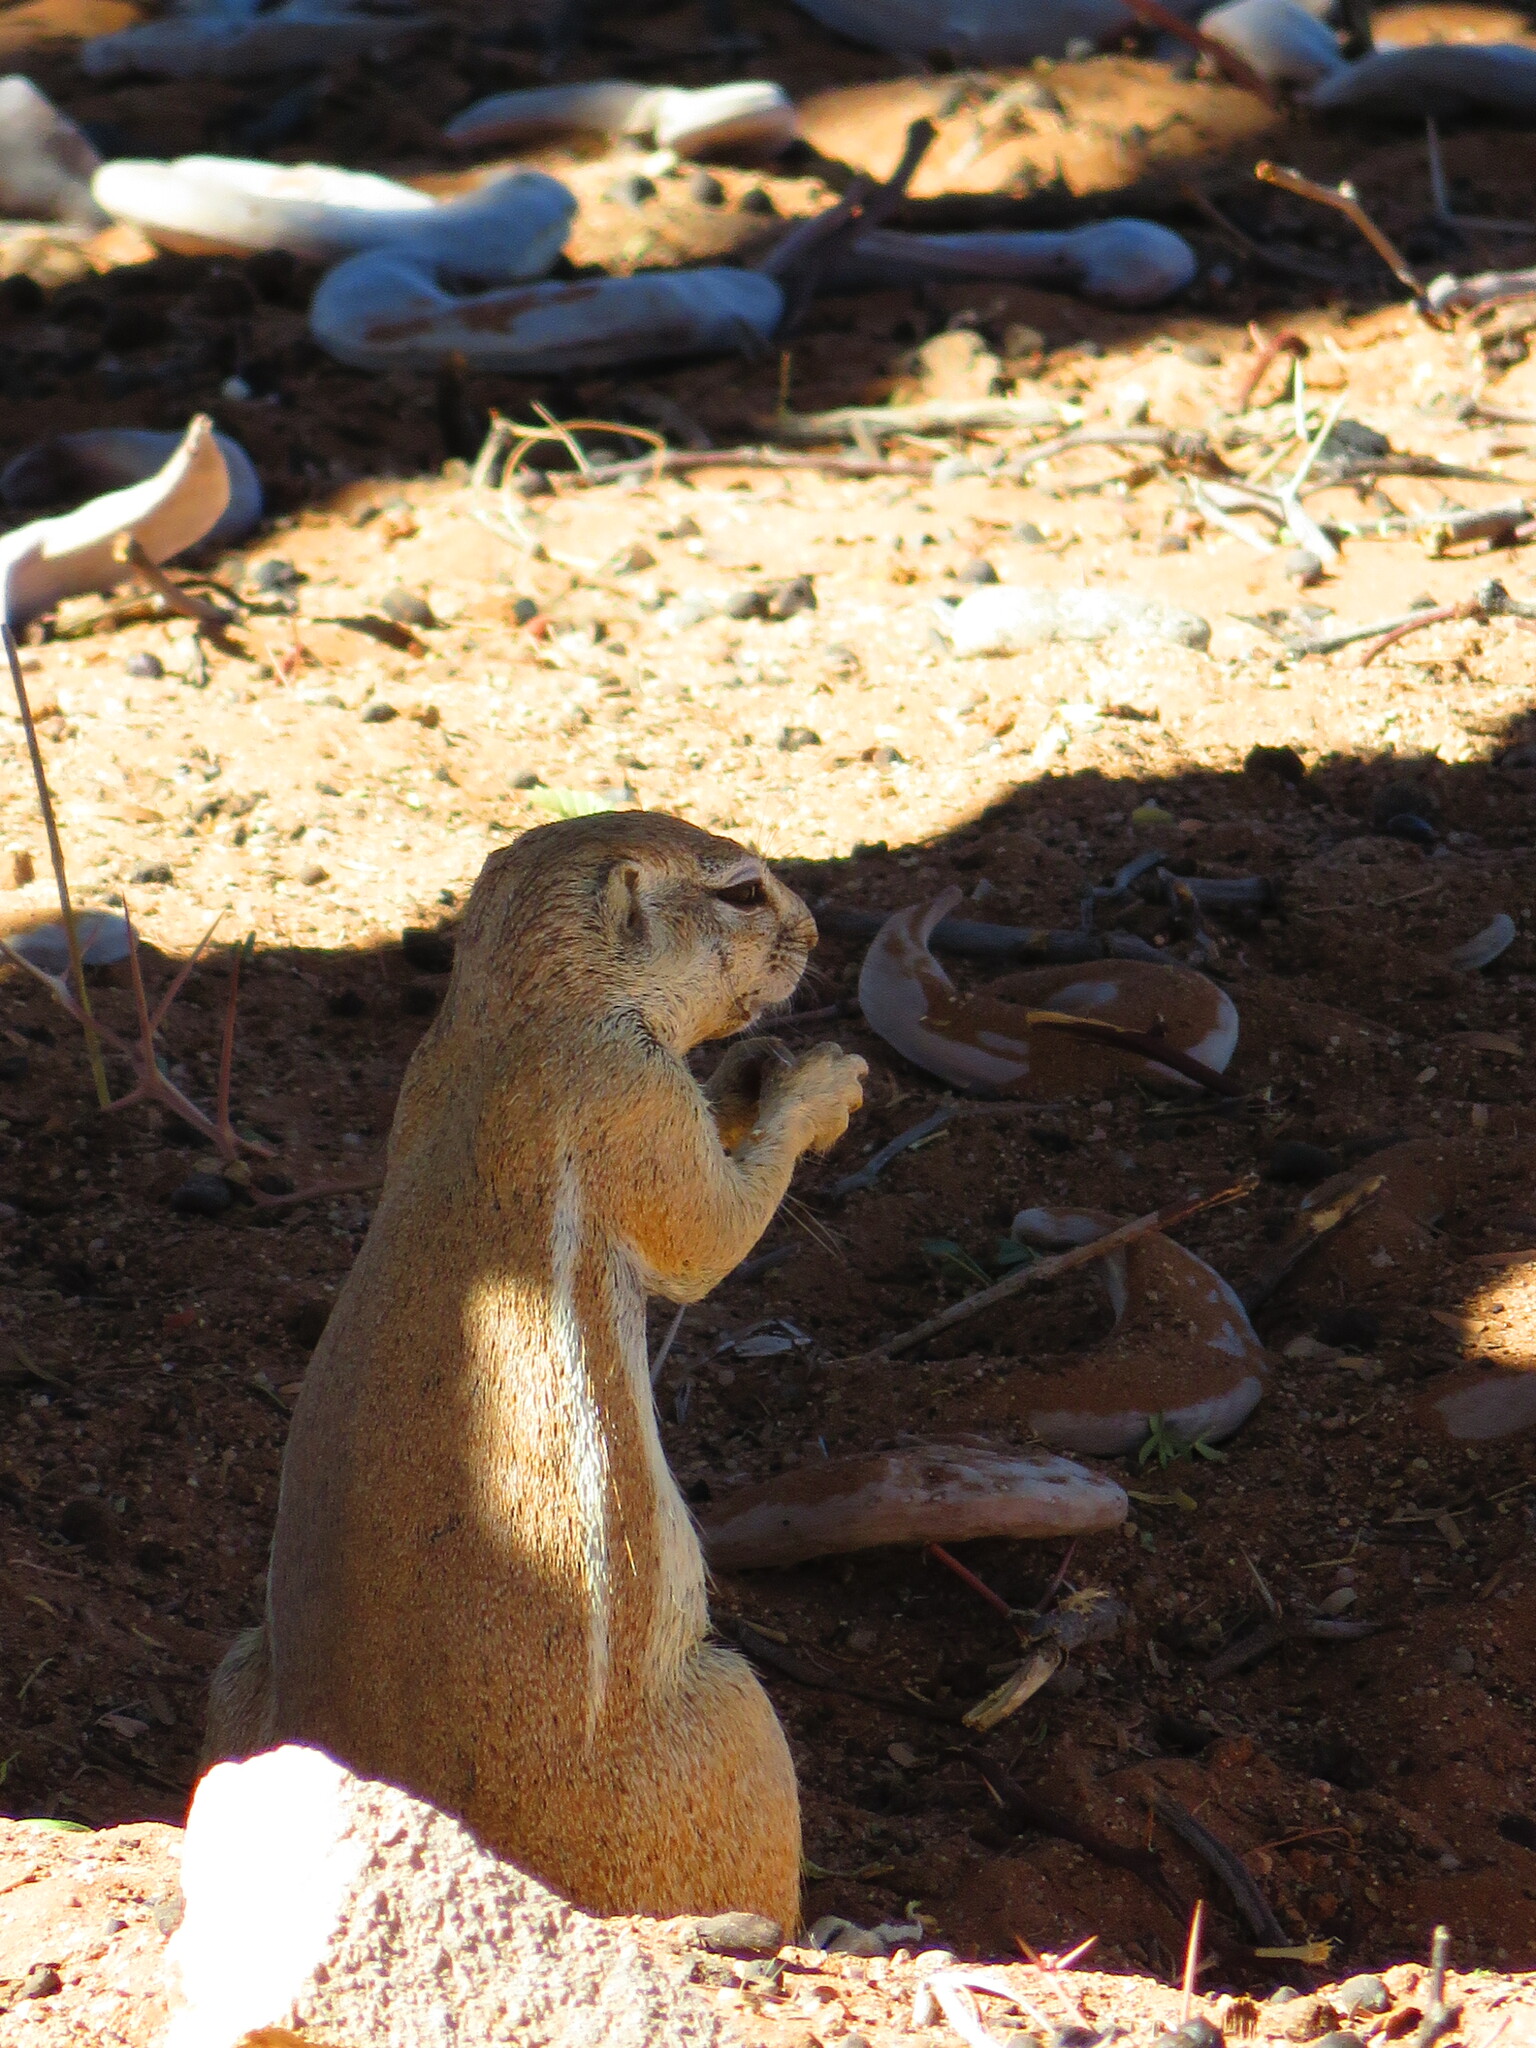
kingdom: Animalia
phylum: Chordata
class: Mammalia
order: Rodentia
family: Sciuridae
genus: Xerus
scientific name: Xerus inauris
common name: South african ground squirrel
